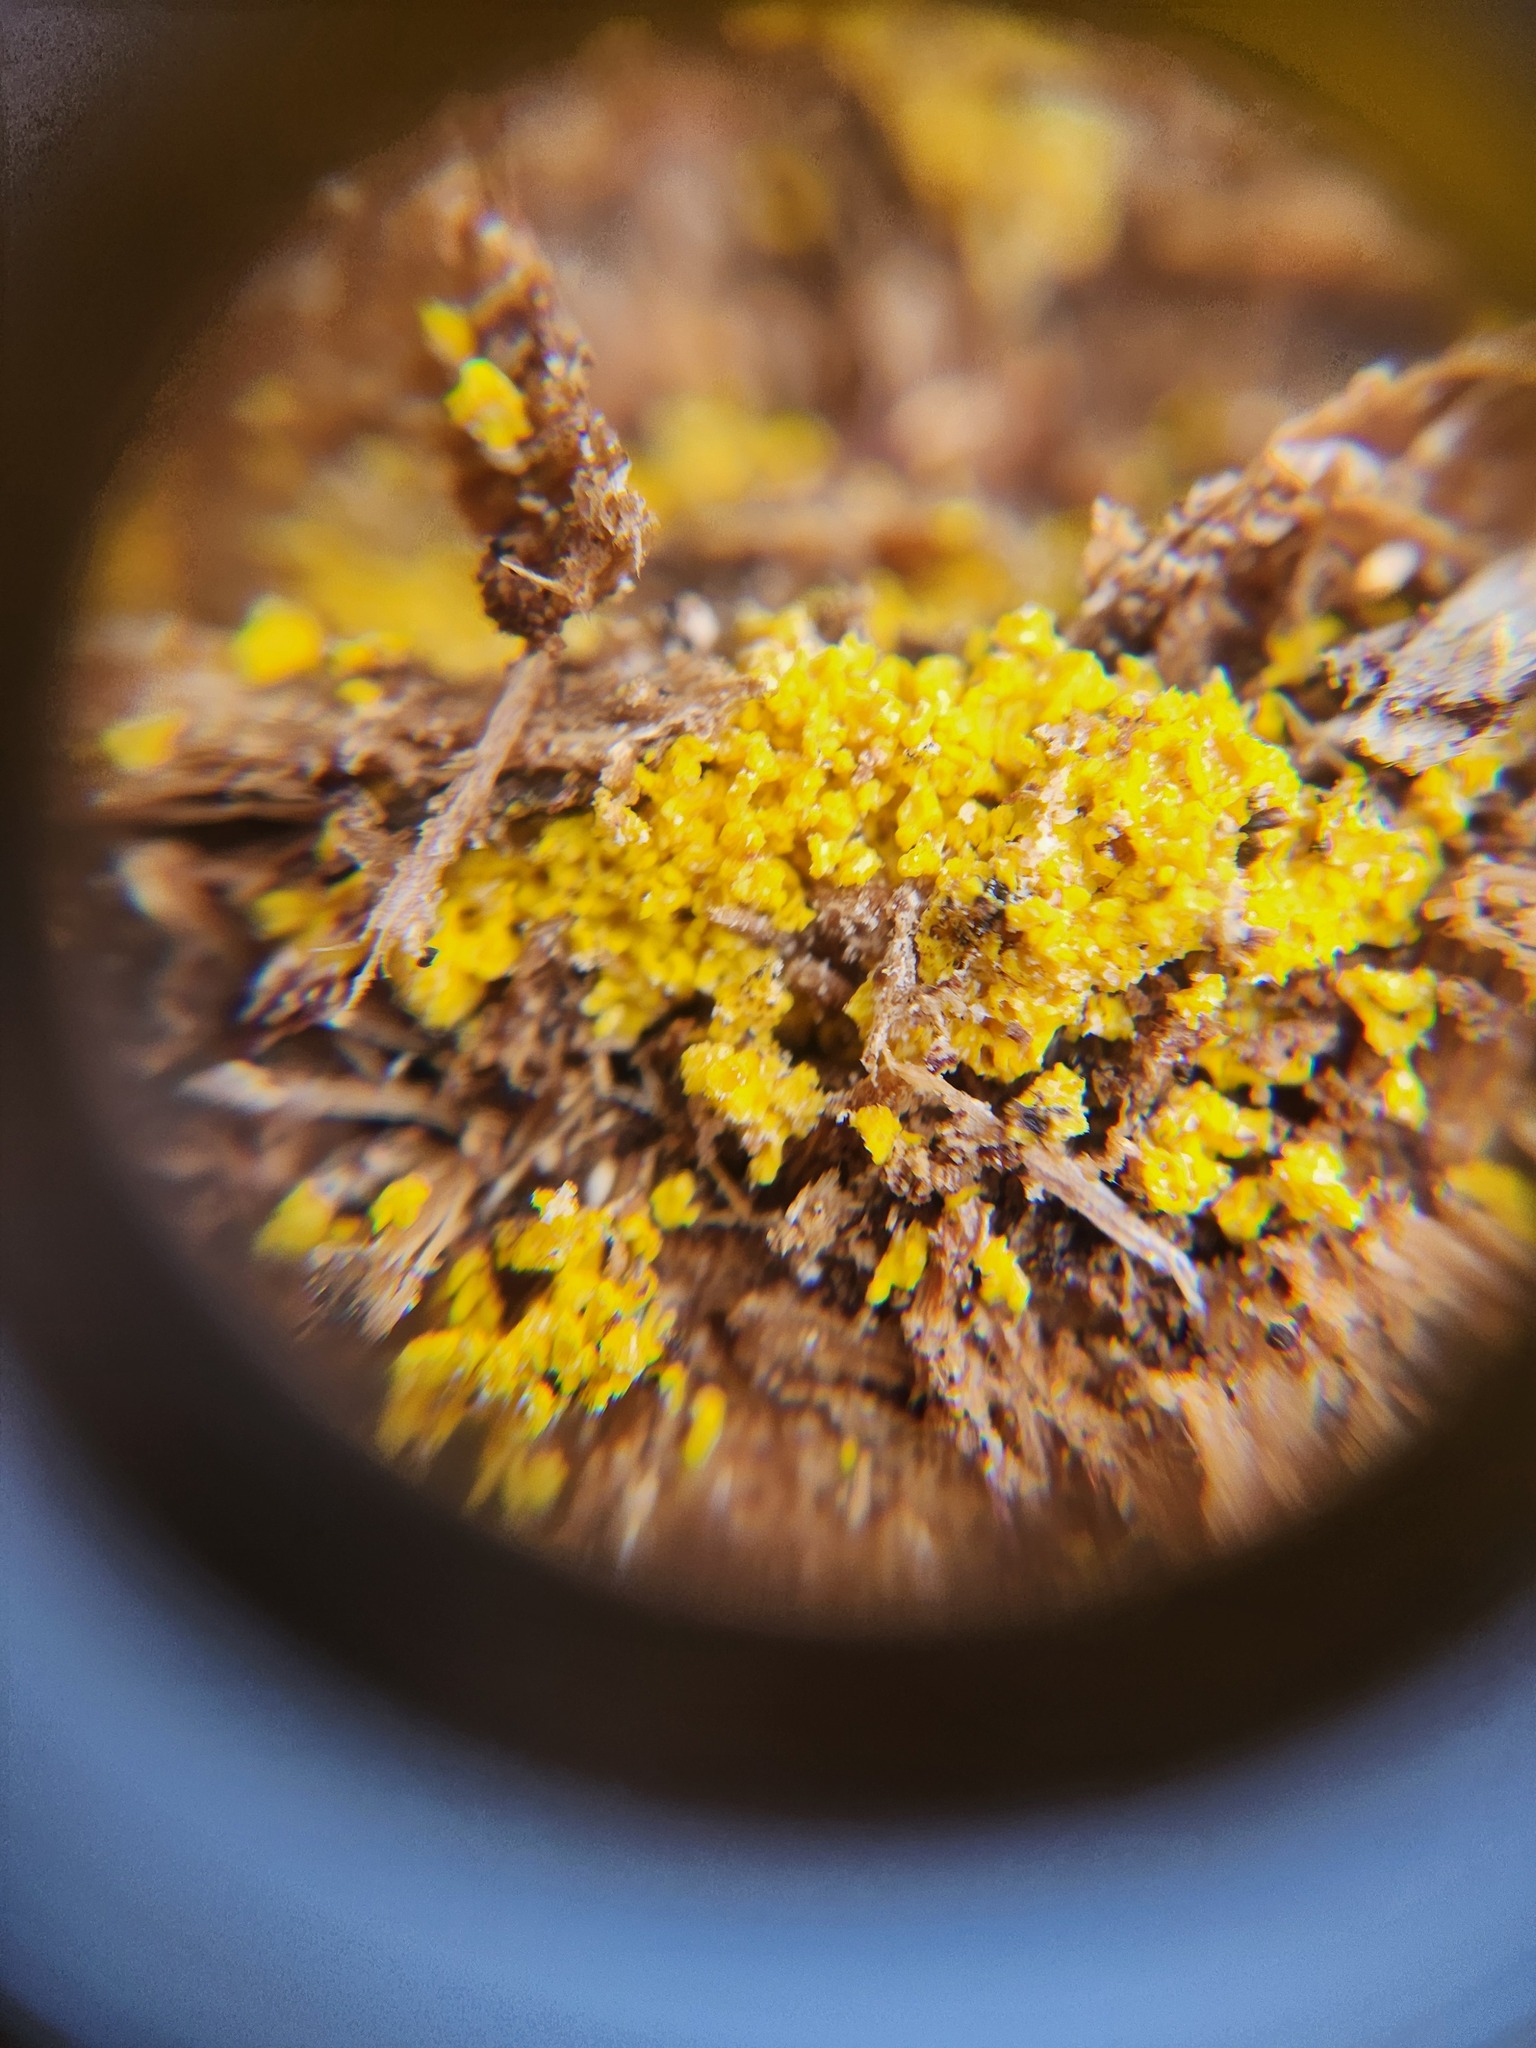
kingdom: Protozoa
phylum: Mycetozoa
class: Myxomycetes
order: Physarales
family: Physaraceae
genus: Fuligo
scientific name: Fuligo septica
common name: Dog vomit slime mold
